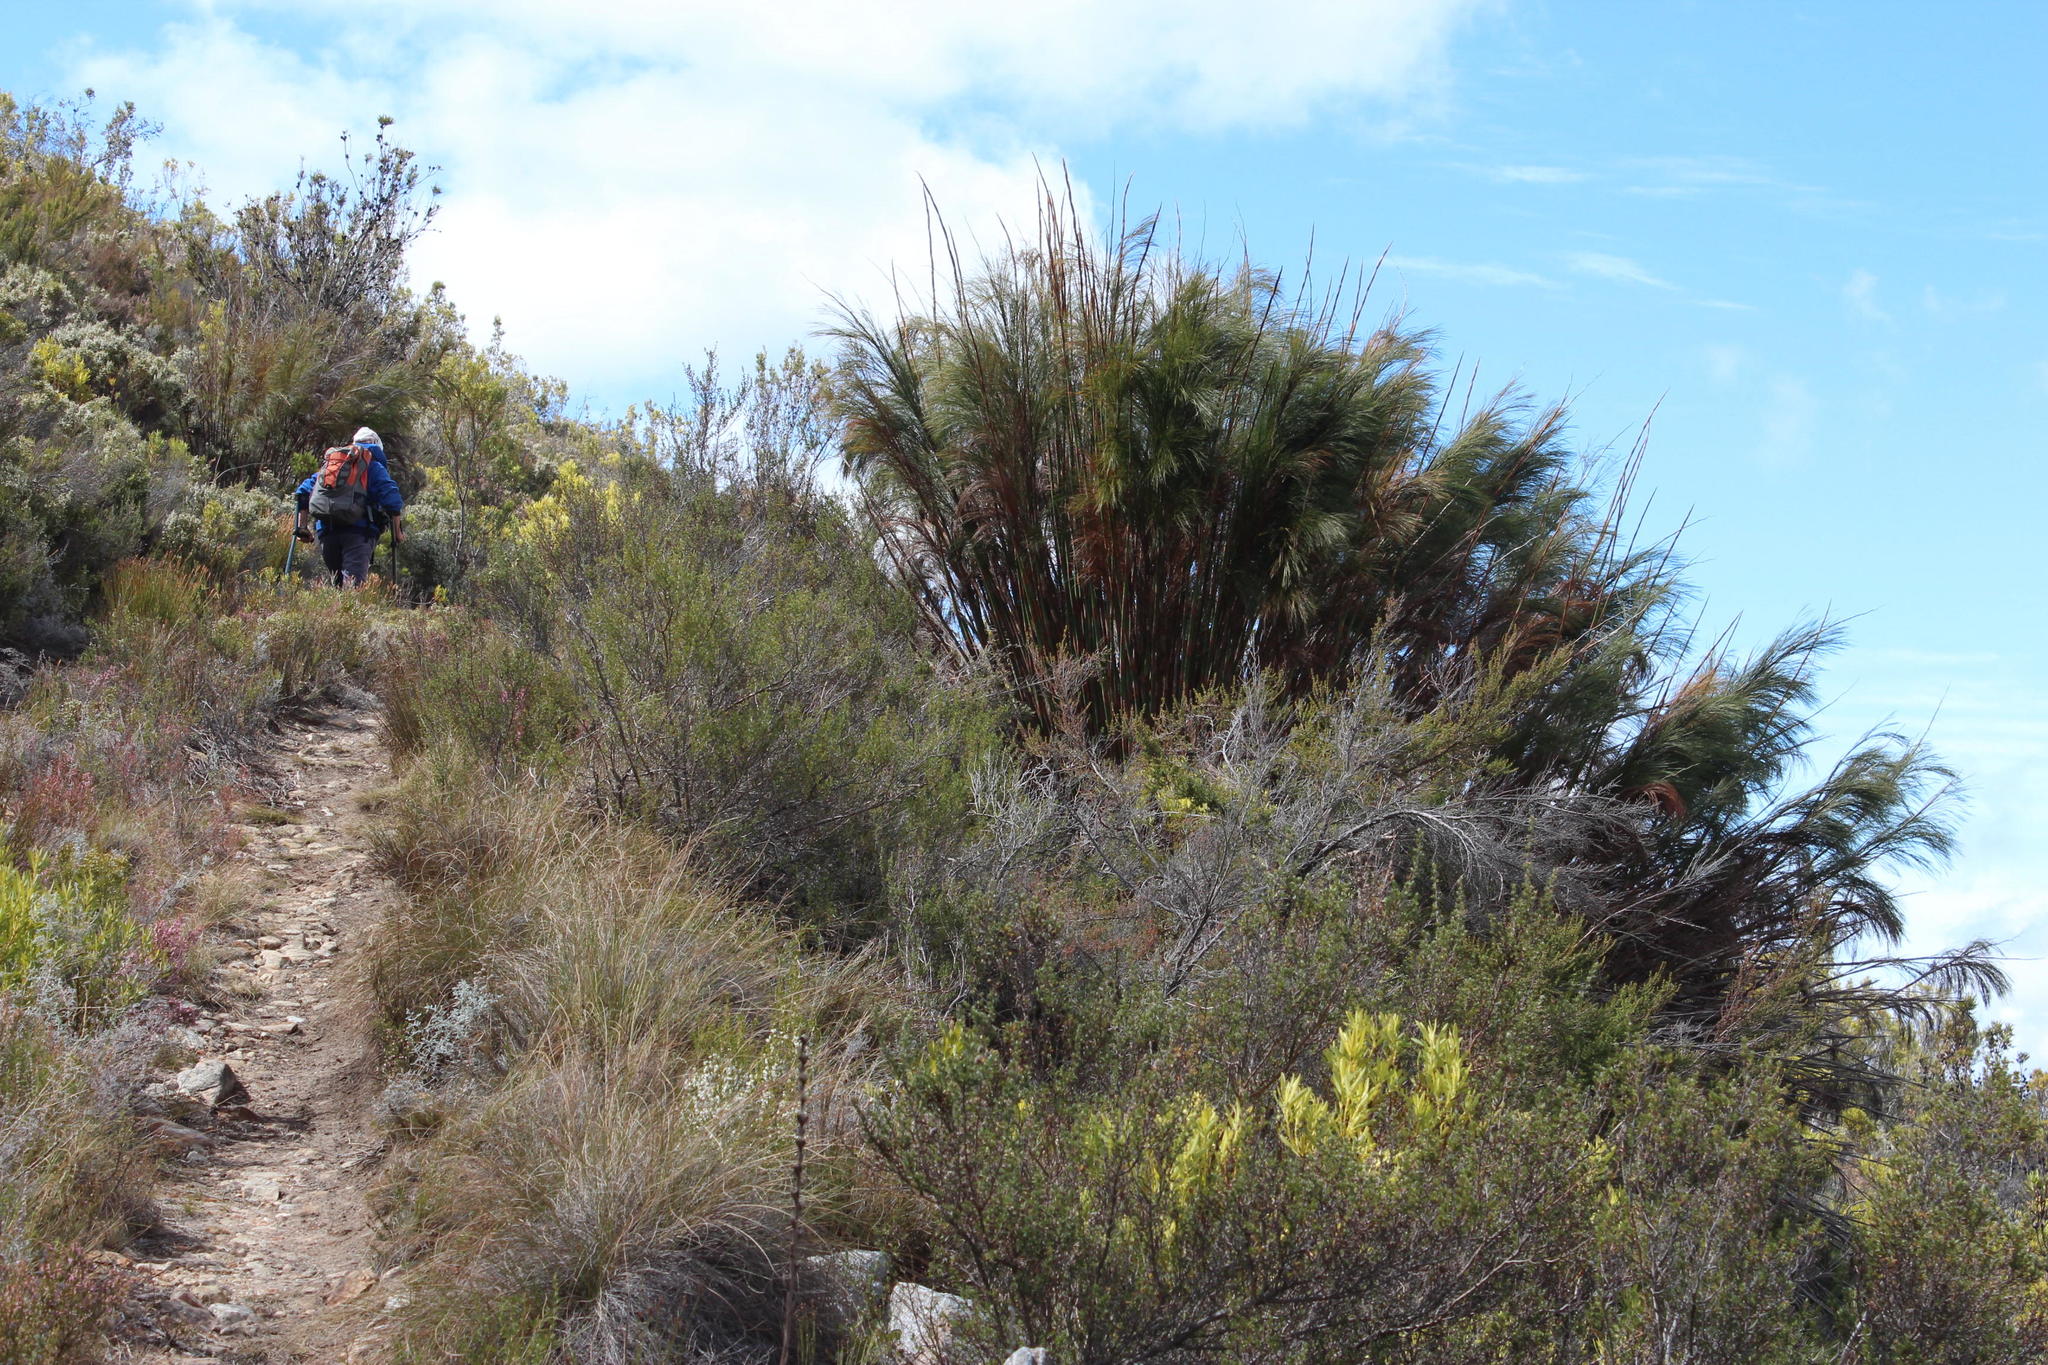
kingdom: Plantae
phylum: Tracheophyta
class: Liliopsida
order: Poales
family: Restionaceae
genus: Cannomois
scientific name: Cannomois robusta
